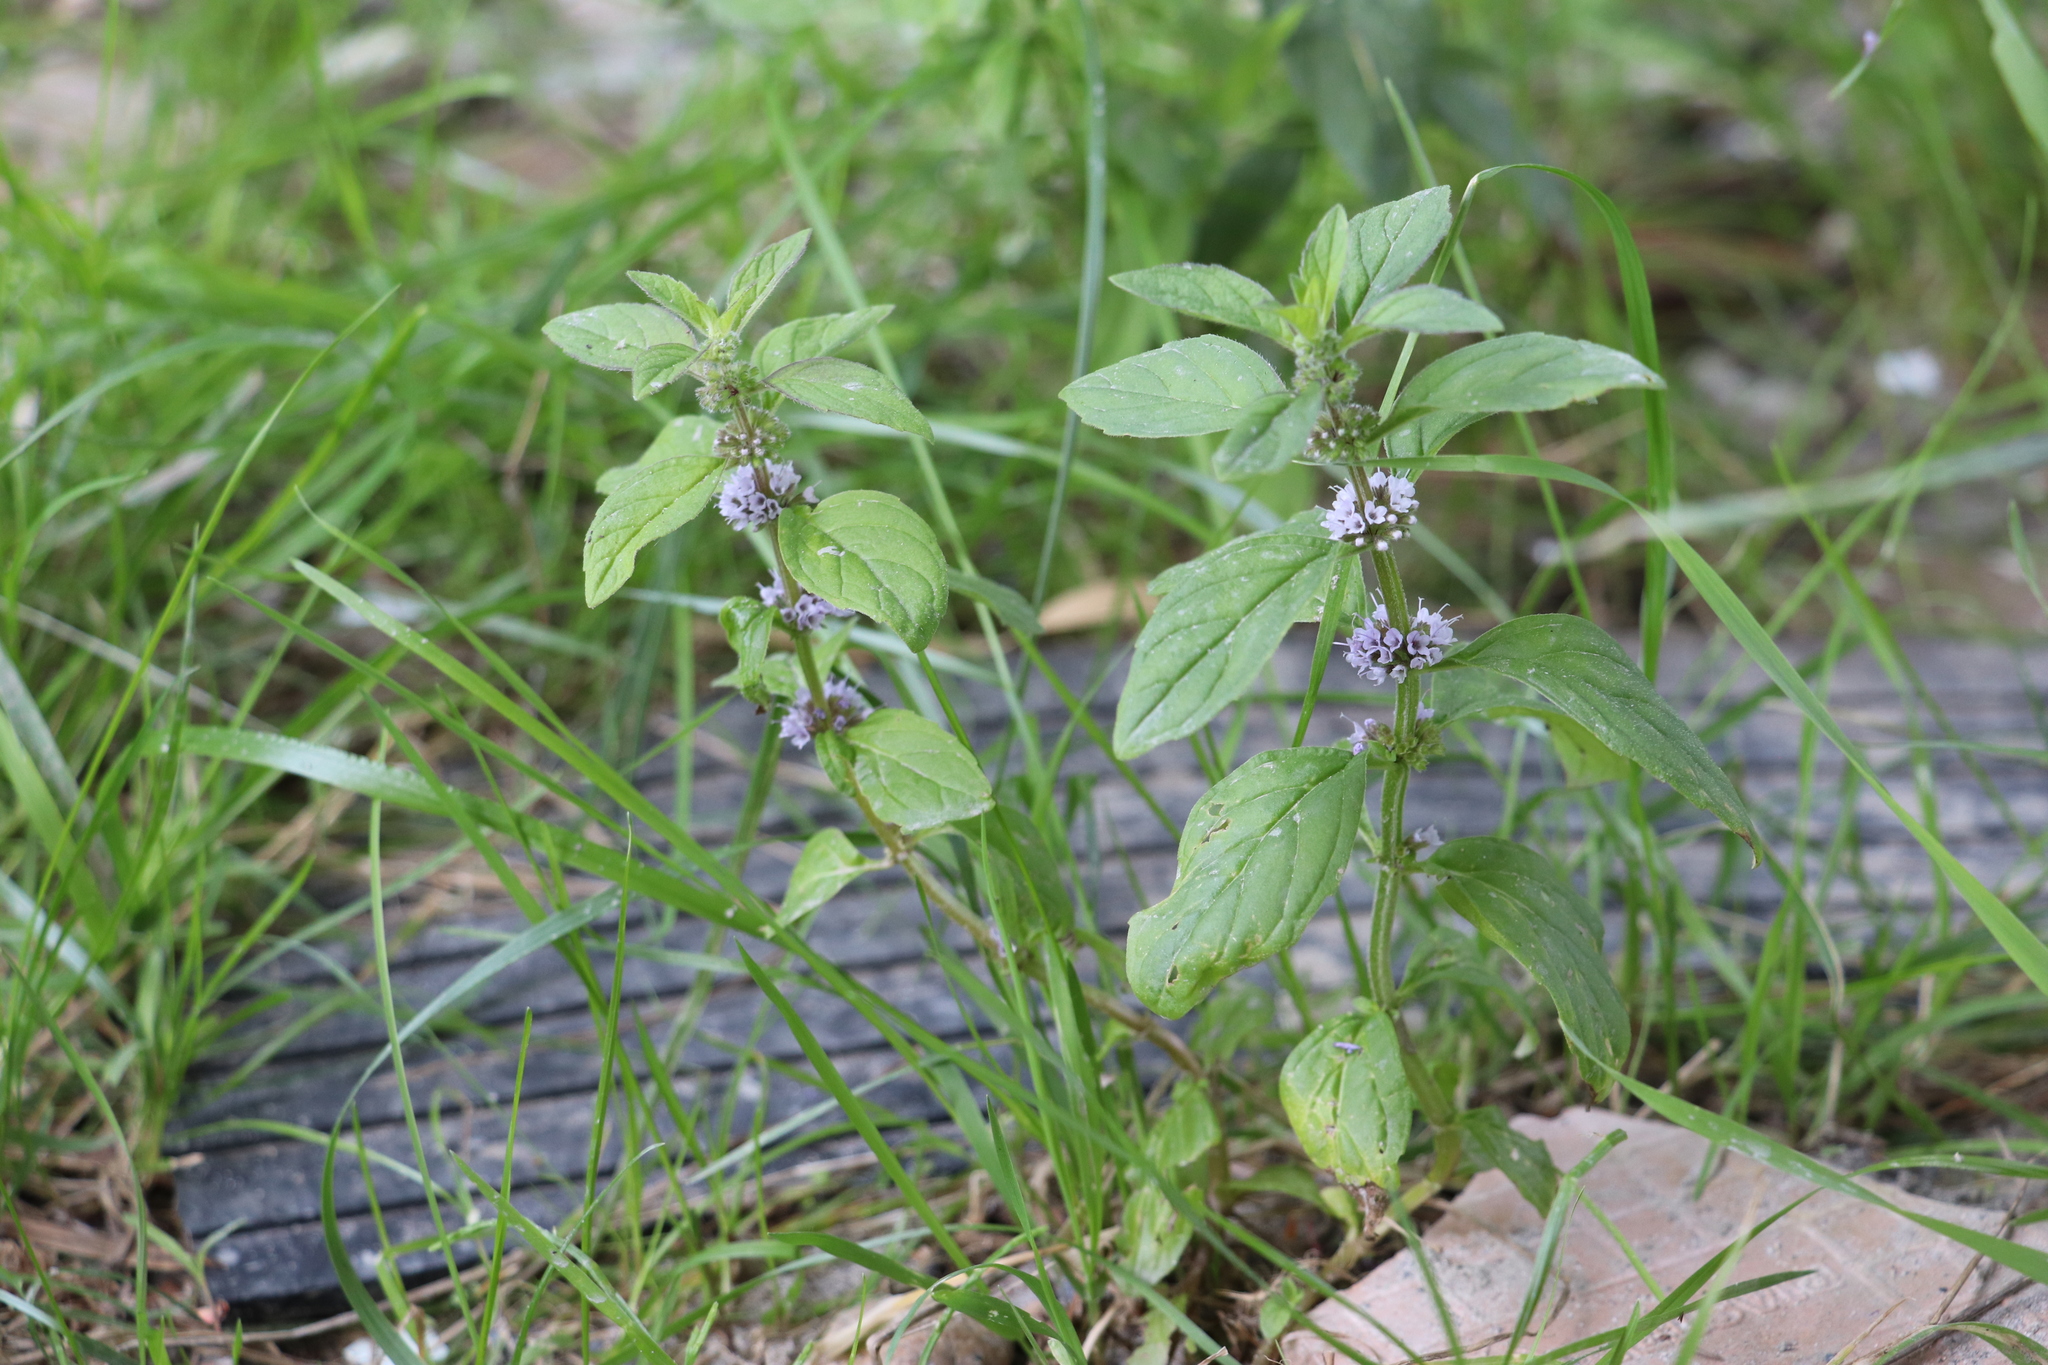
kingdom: Plantae
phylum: Tracheophyta
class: Magnoliopsida
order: Lamiales
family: Lamiaceae
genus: Mentha
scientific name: Mentha arvensis
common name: Corn mint
